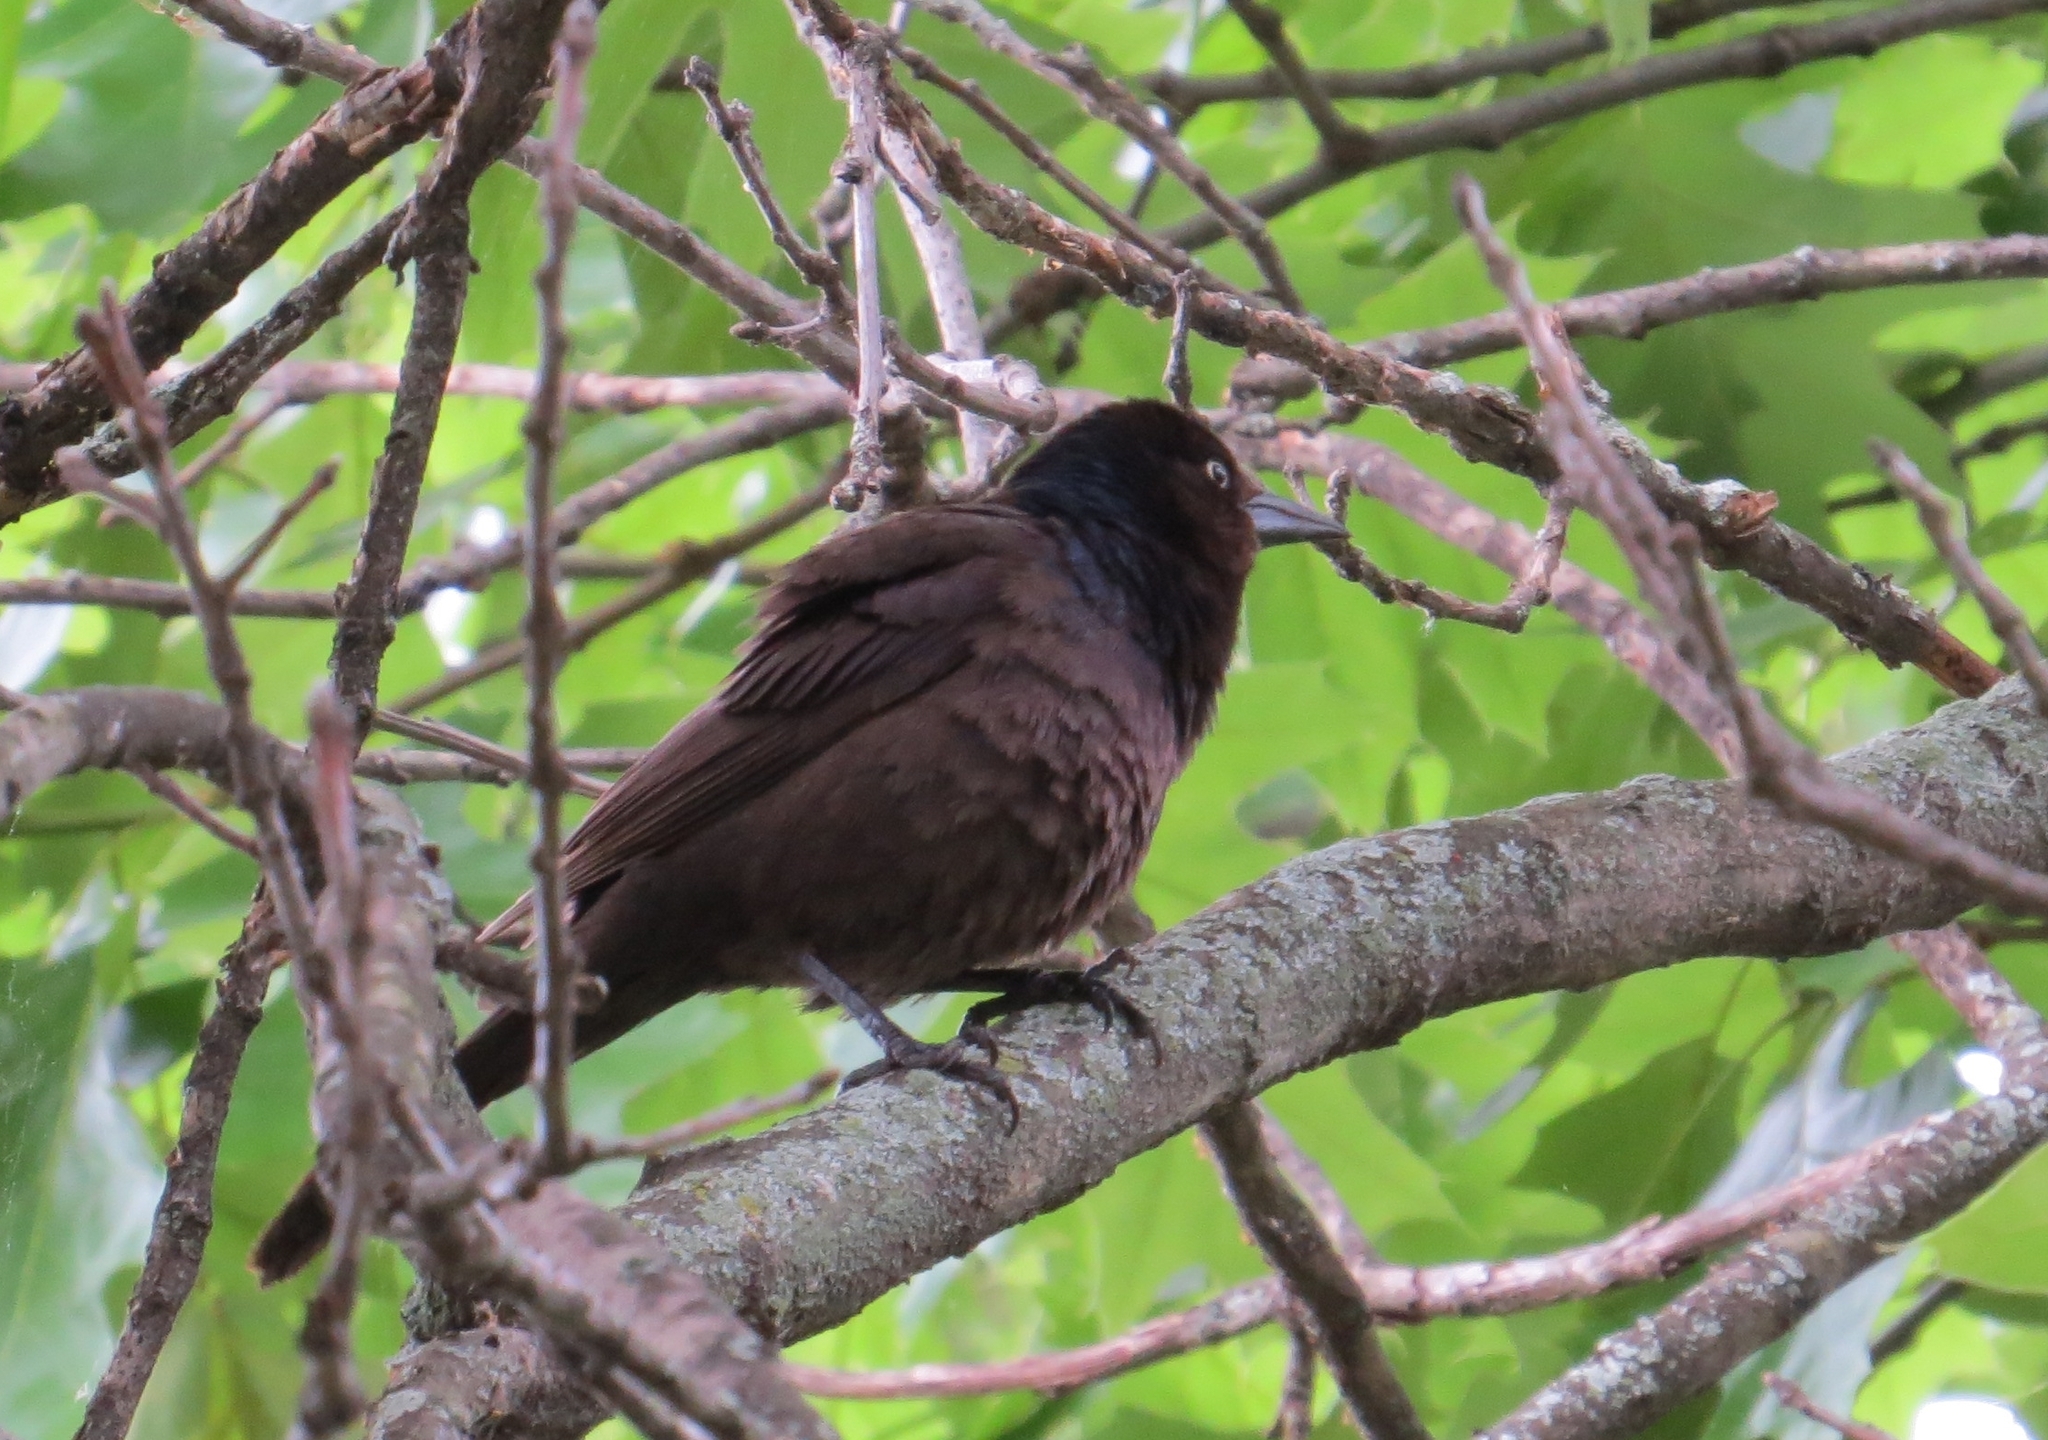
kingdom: Animalia
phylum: Chordata
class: Aves
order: Passeriformes
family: Icteridae
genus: Quiscalus
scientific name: Quiscalus quiscula
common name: Common grackle
